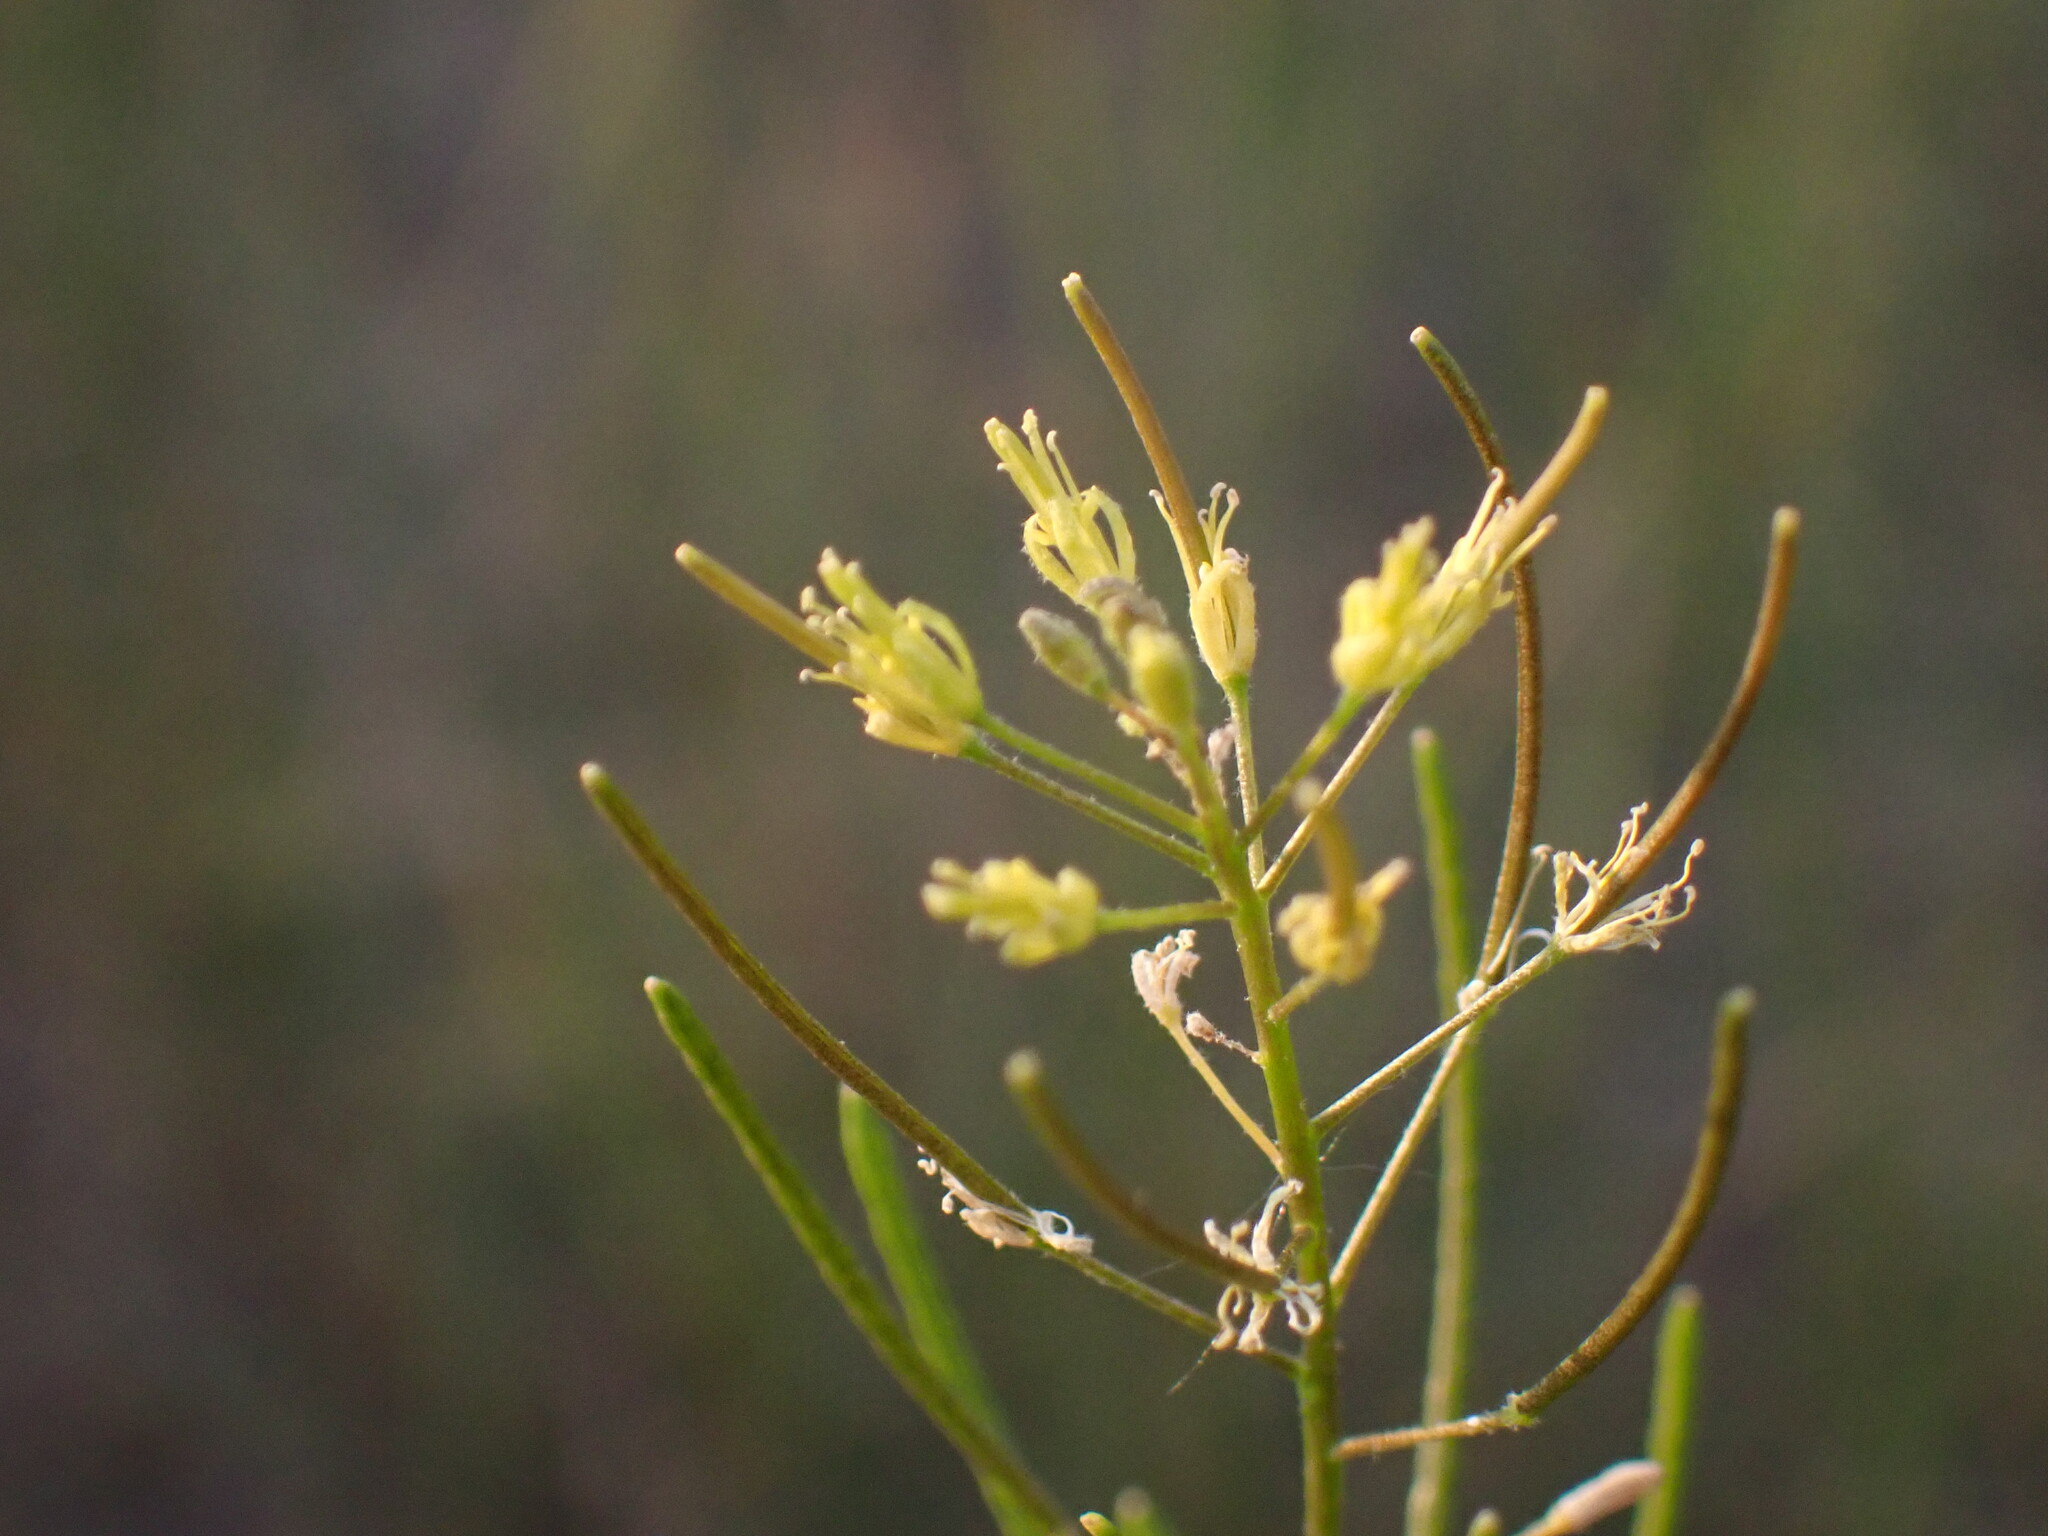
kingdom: Plantae
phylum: Tracheophyta
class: Magnoliopsida
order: Brassicales
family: Brassicaceae
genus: Descurainia
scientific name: Descurainia sophia
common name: Flixweed
